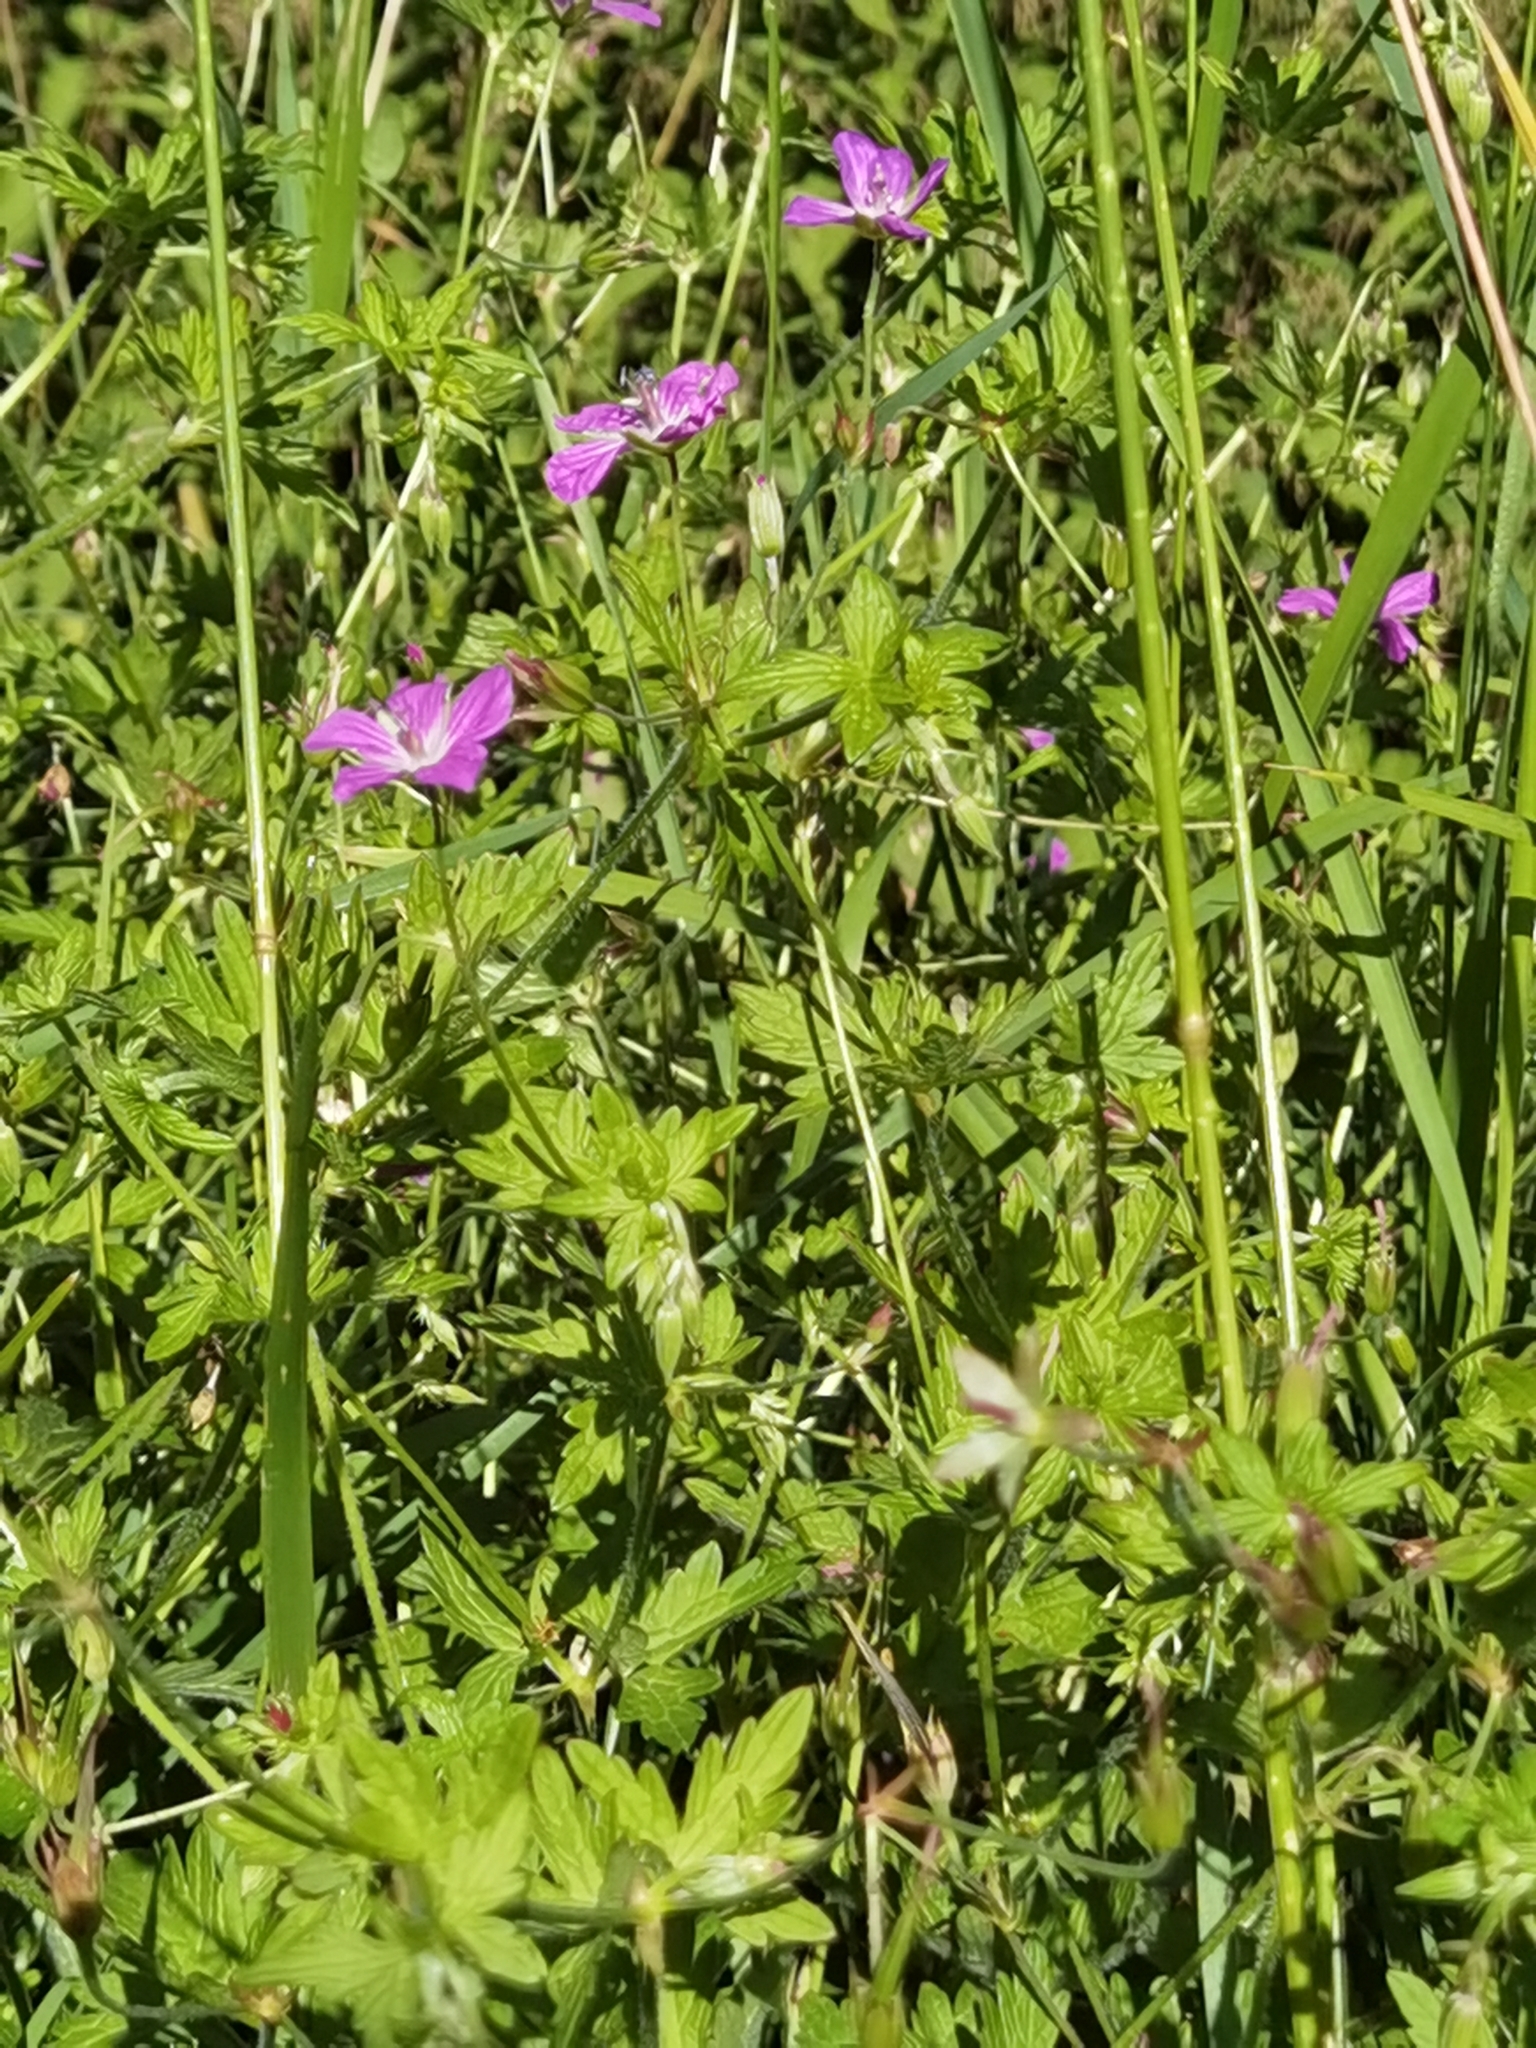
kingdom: Plantae
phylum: Tracheophyta
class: Magnoliopsida
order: Geraniales
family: Geraniaceae
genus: Geranium
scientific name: Geranium palustre
